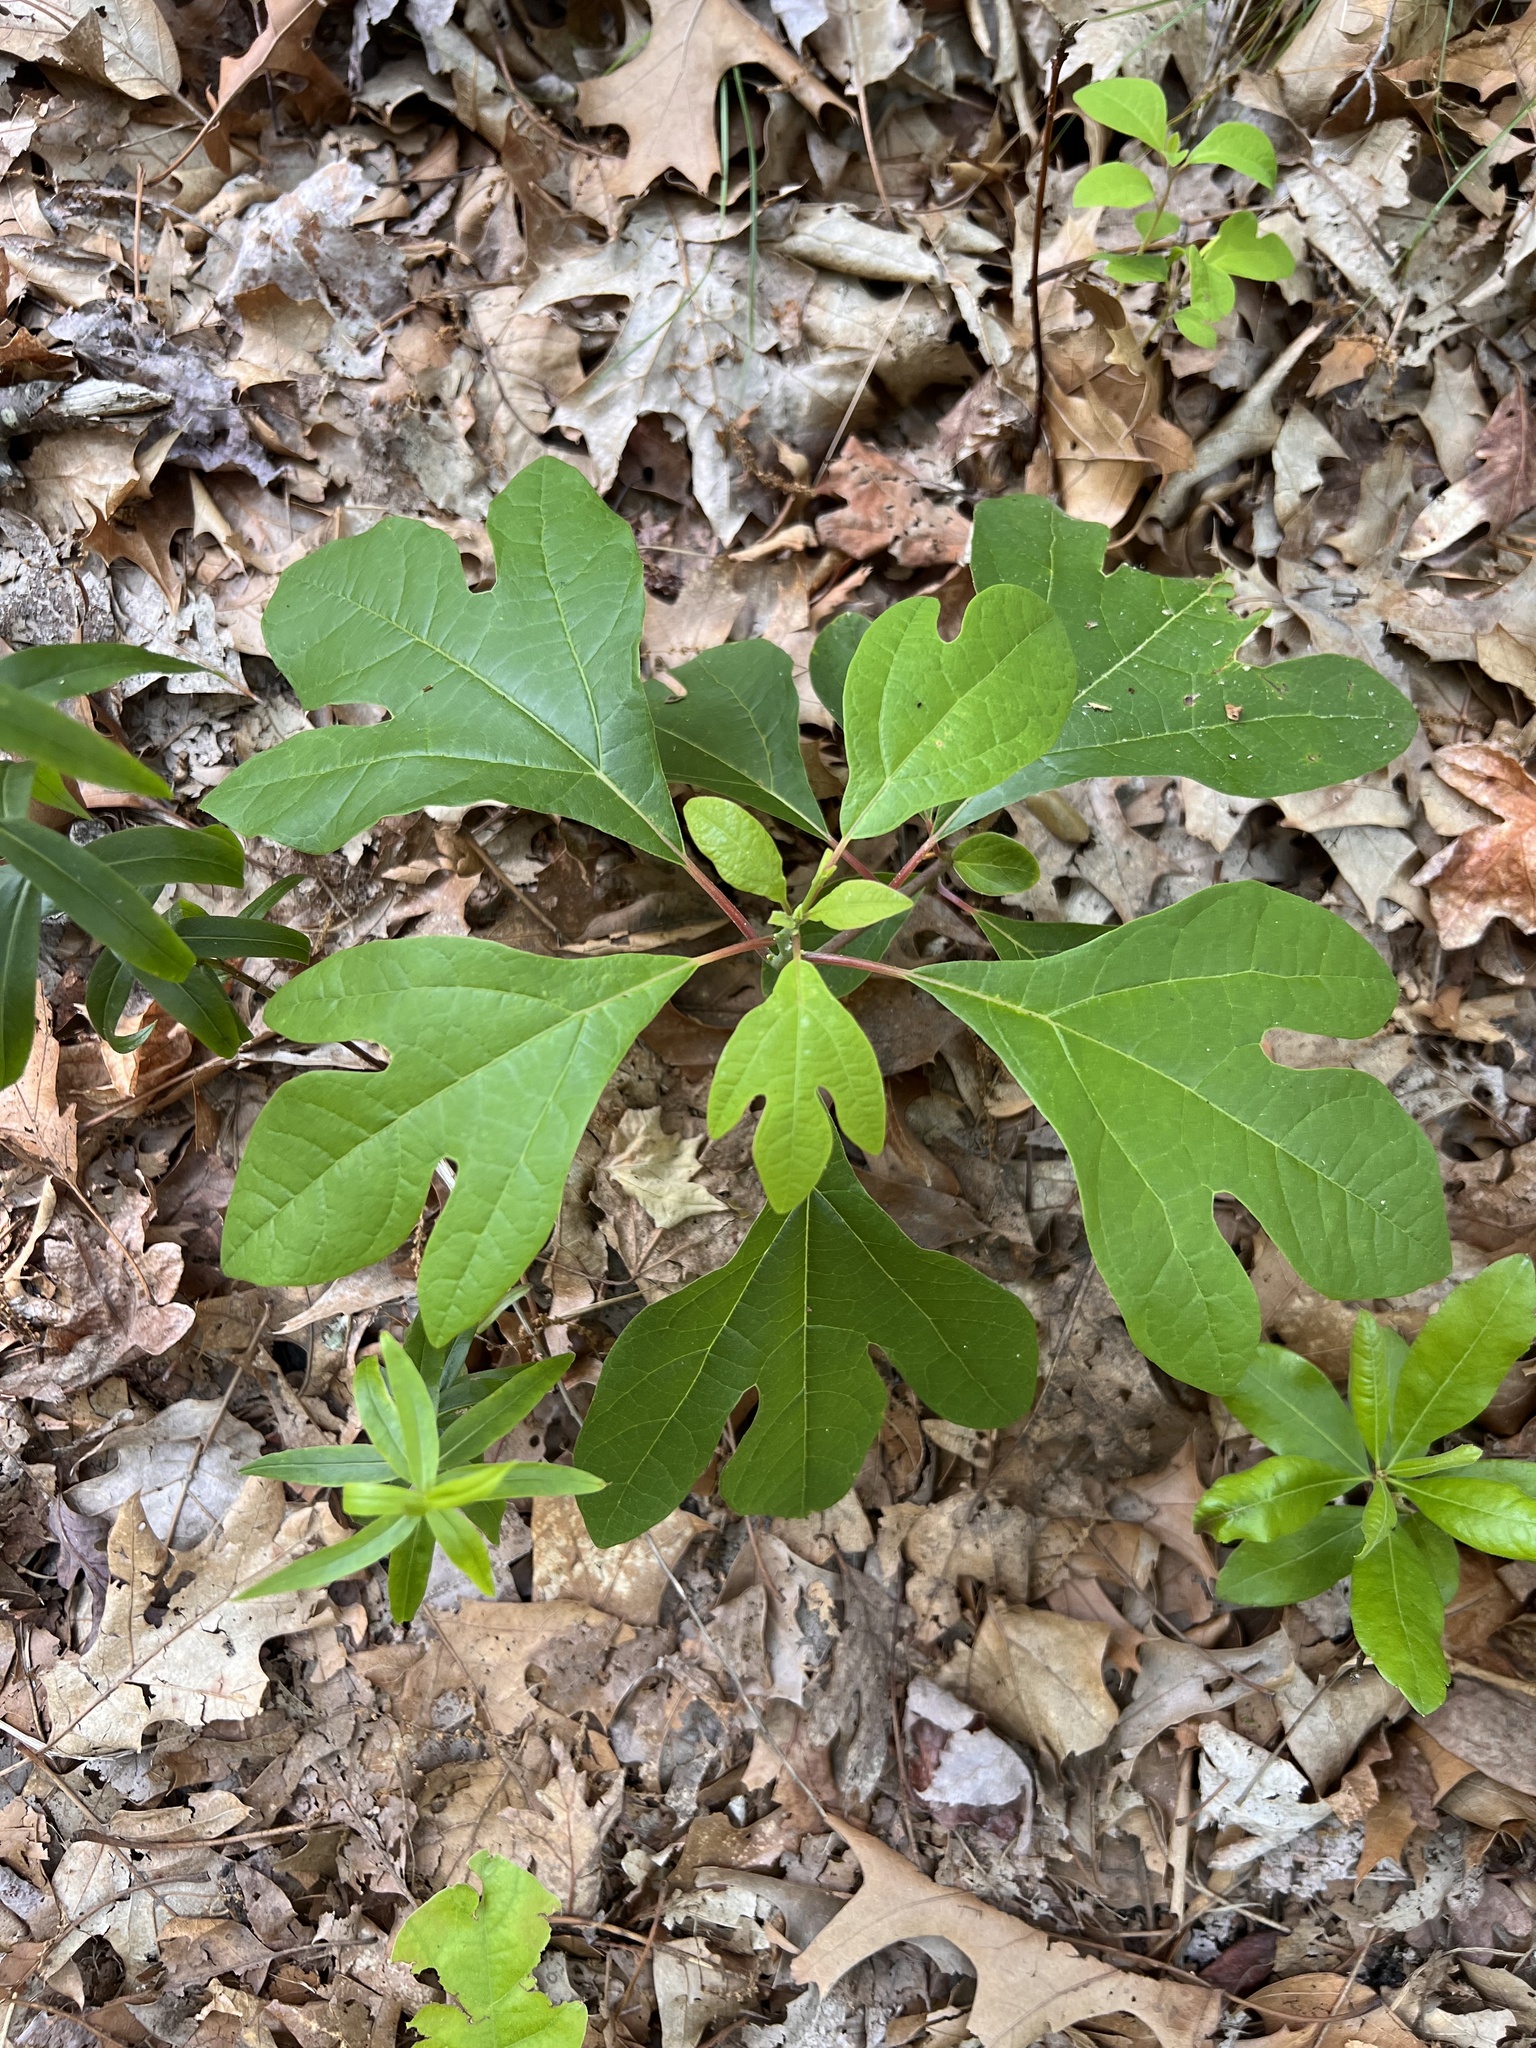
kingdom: Plantae
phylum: Tracheophyta
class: Magnoliopsida
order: Laurales
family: Lauraceae
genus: Sassafras
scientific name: Sassafras albidum
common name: Sassafras
